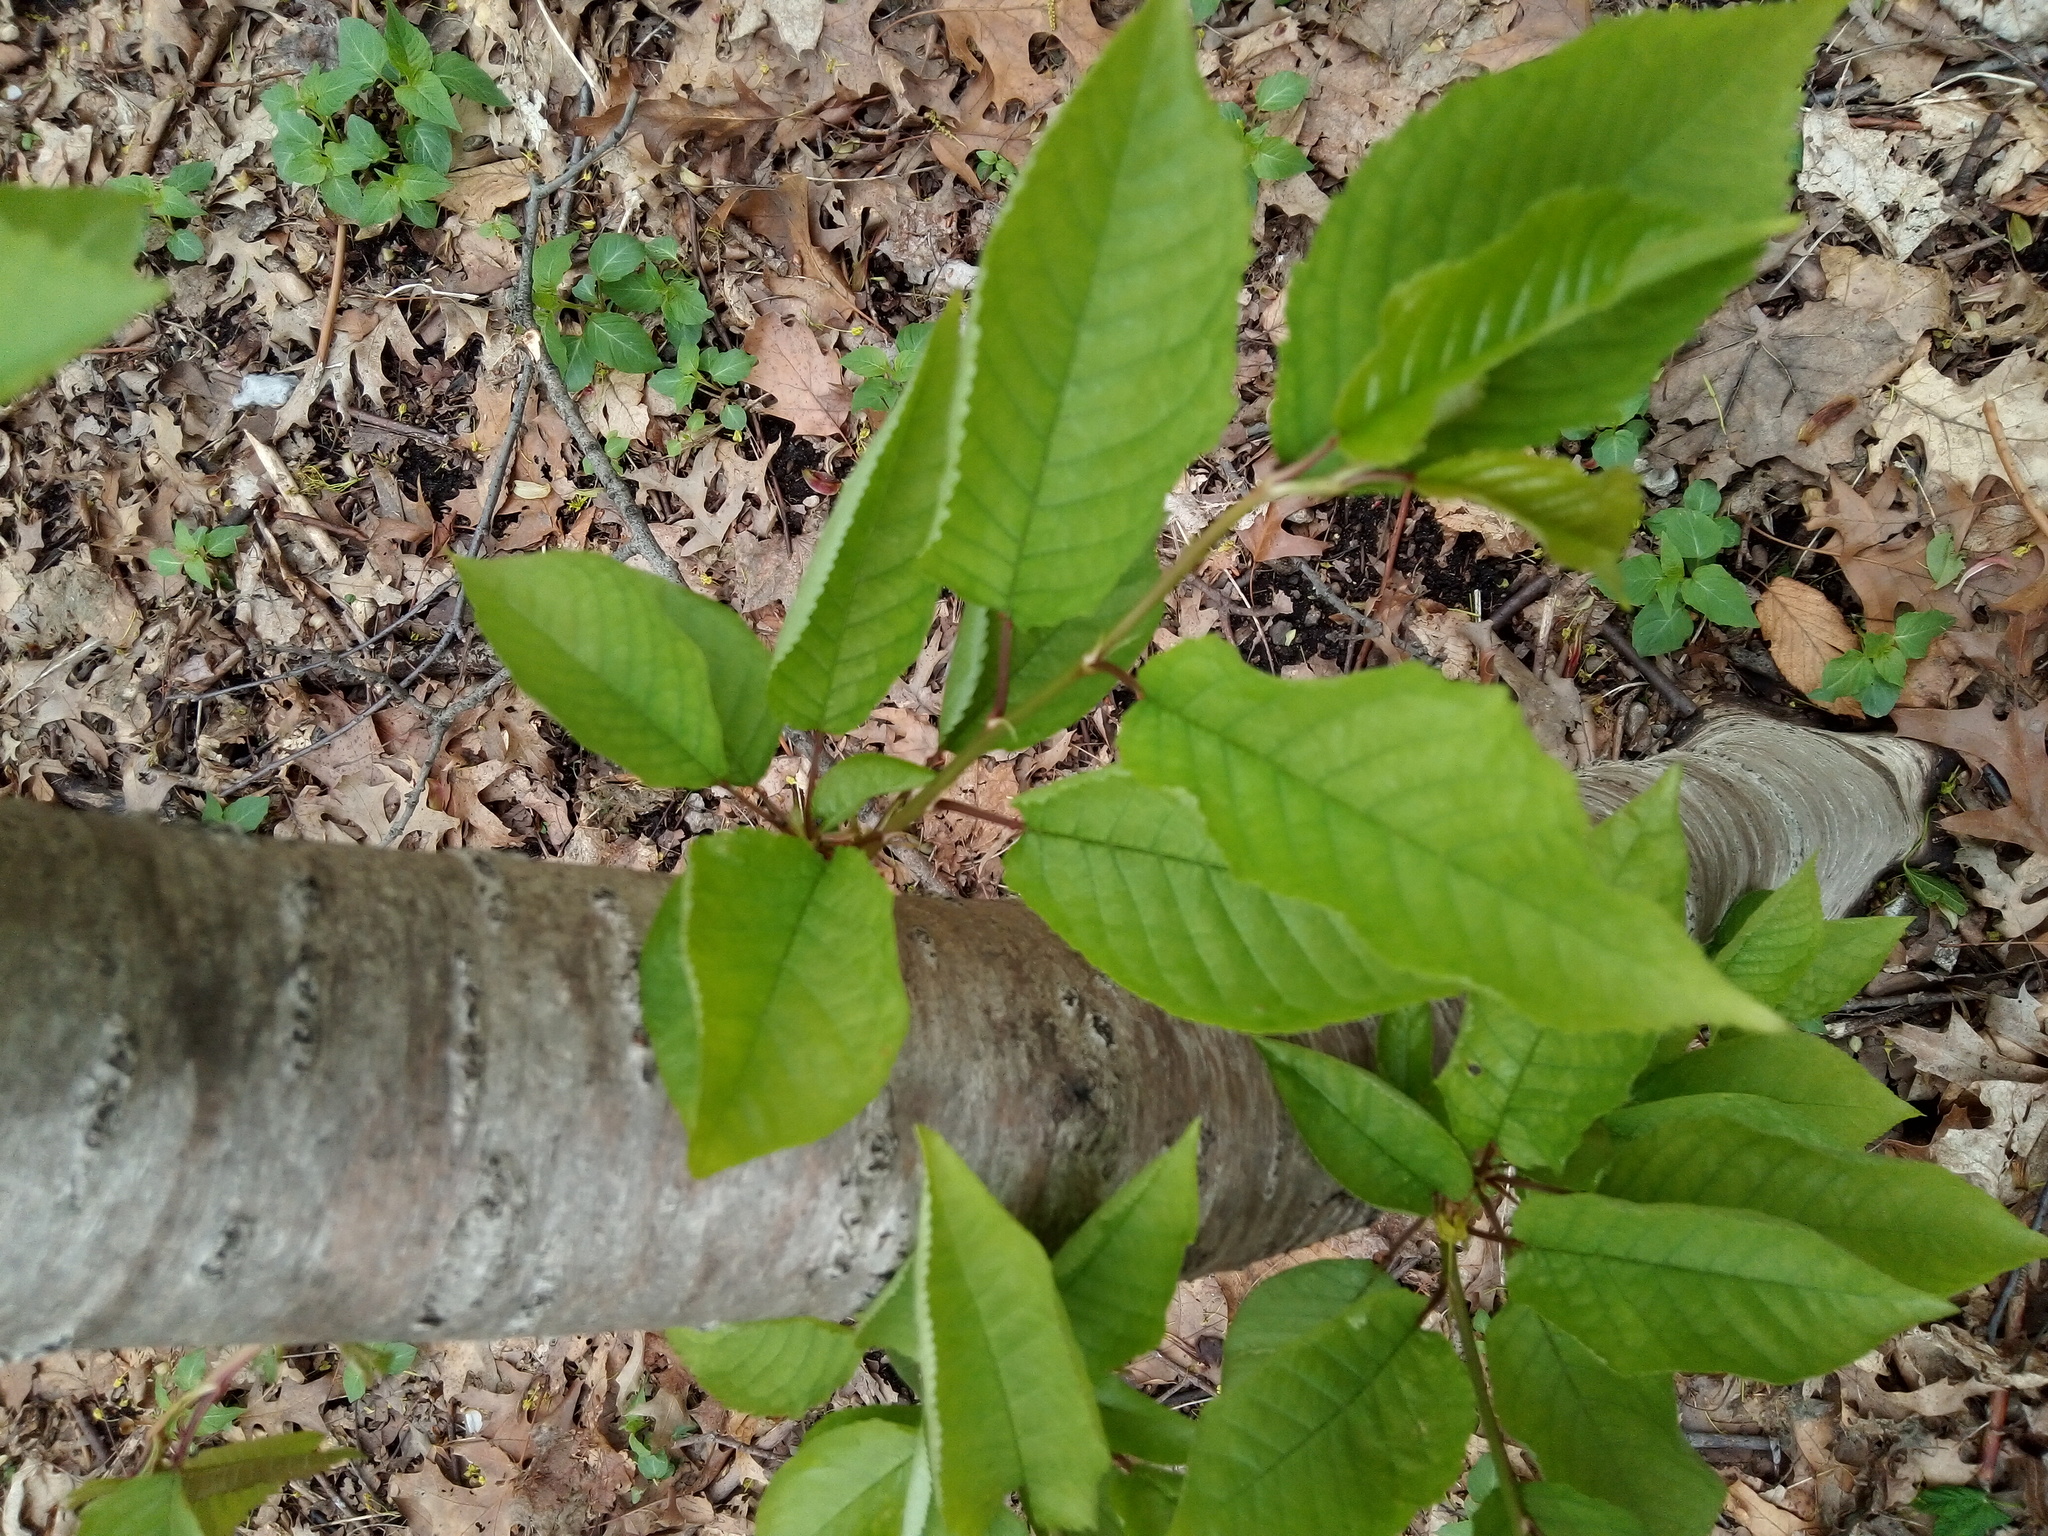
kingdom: Plantae
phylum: Tracheophyta
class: Magnoliopsida
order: Rosales
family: Rosaceae
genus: Prunus
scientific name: Prunus avium
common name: Sweet cherry
